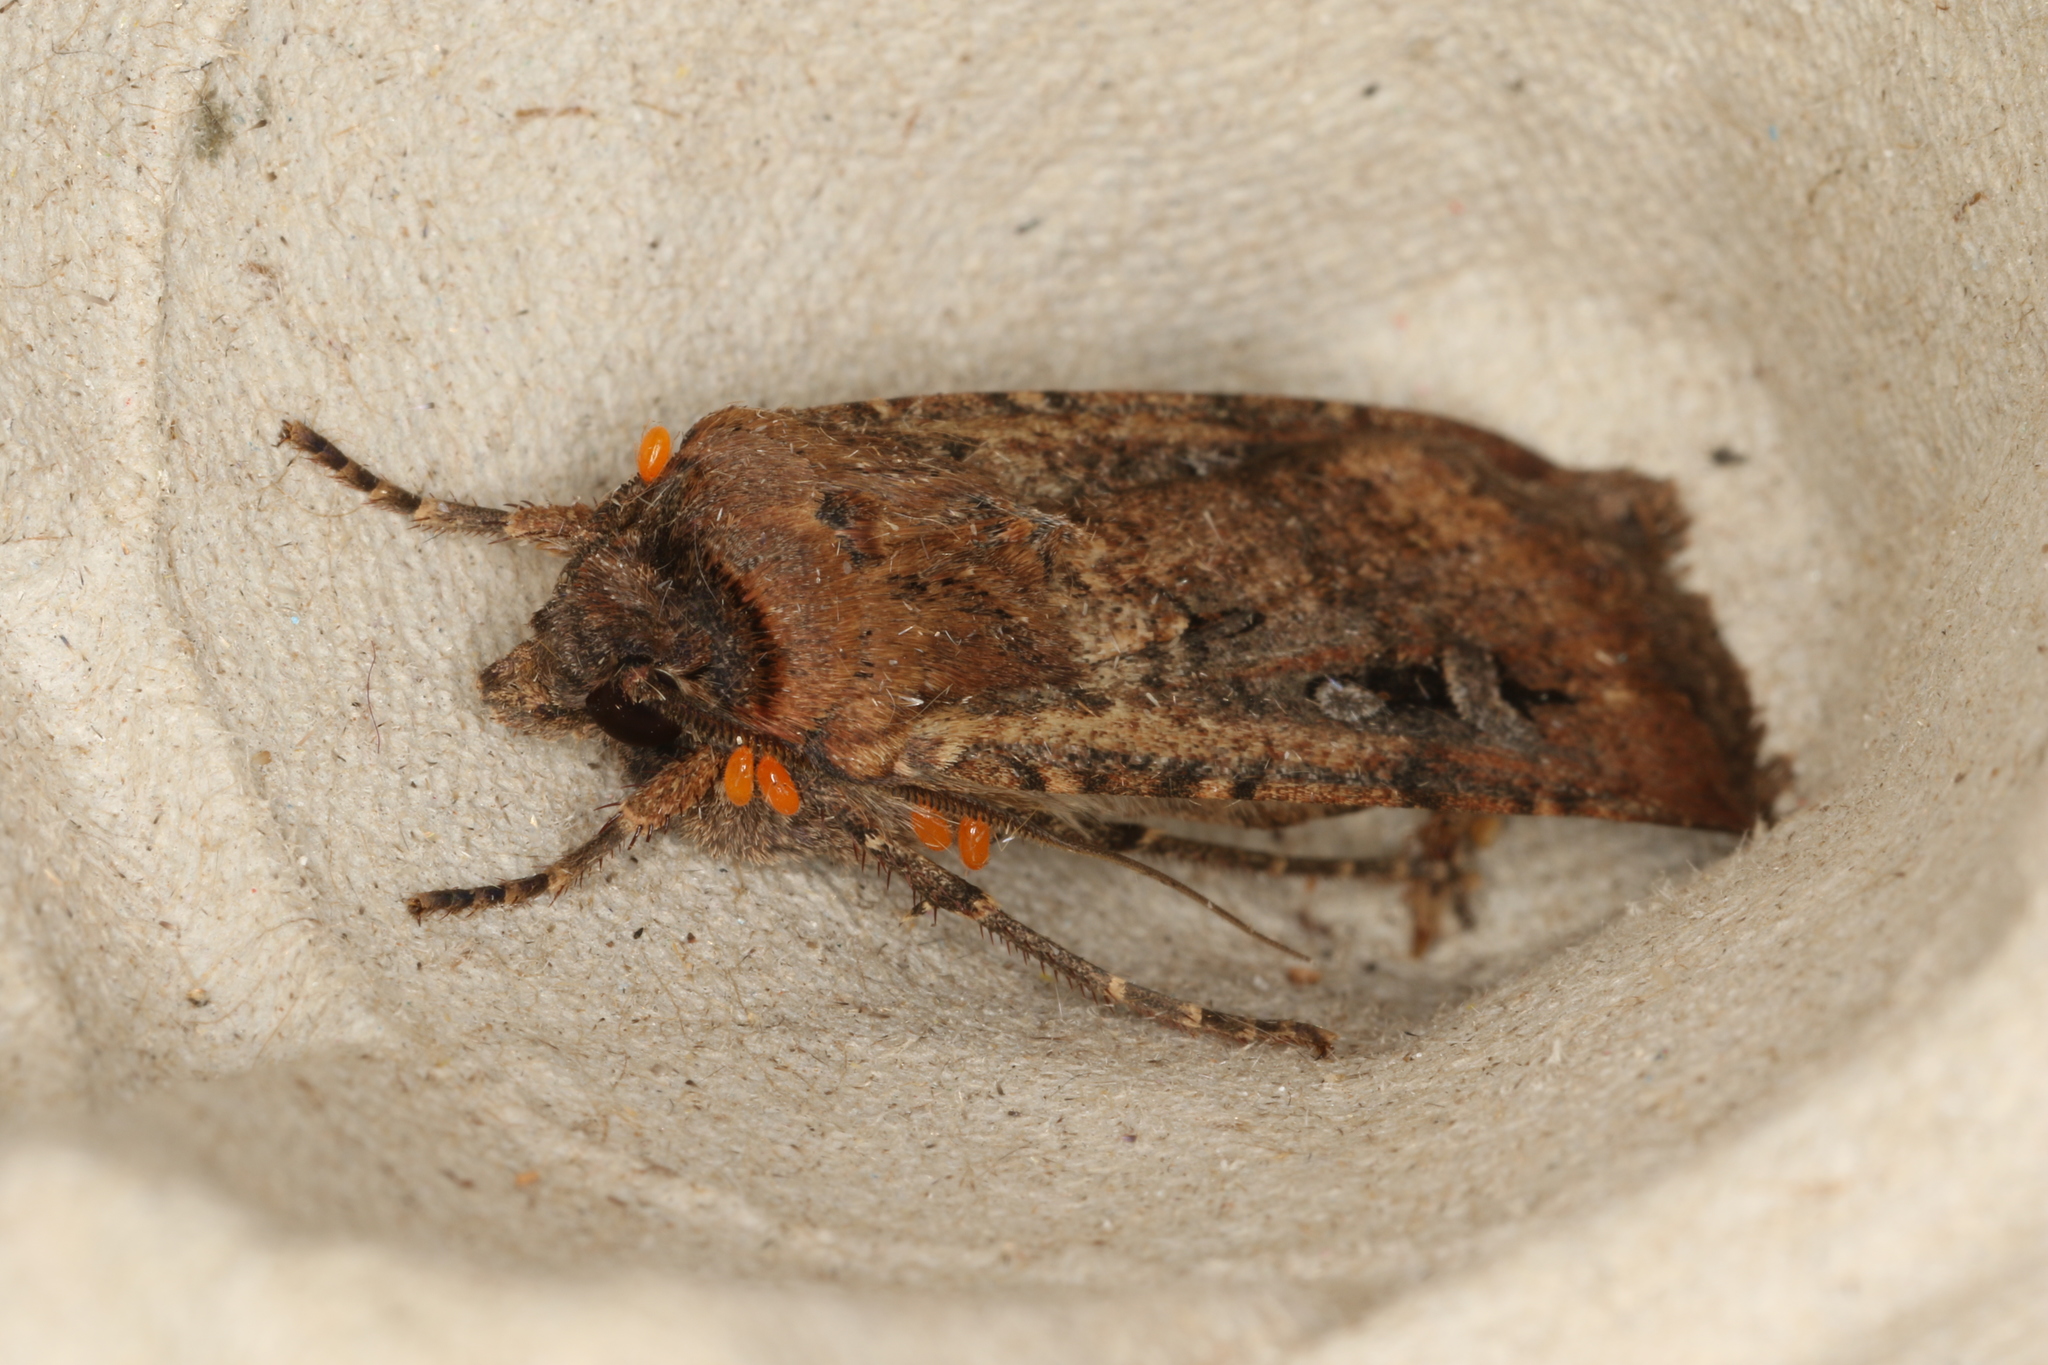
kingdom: Animalia
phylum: Arthropoda
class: Insecta
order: Lepidoptera
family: Noctuidae
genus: Agrotis
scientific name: Agrotis infusa
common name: Bogong moth
